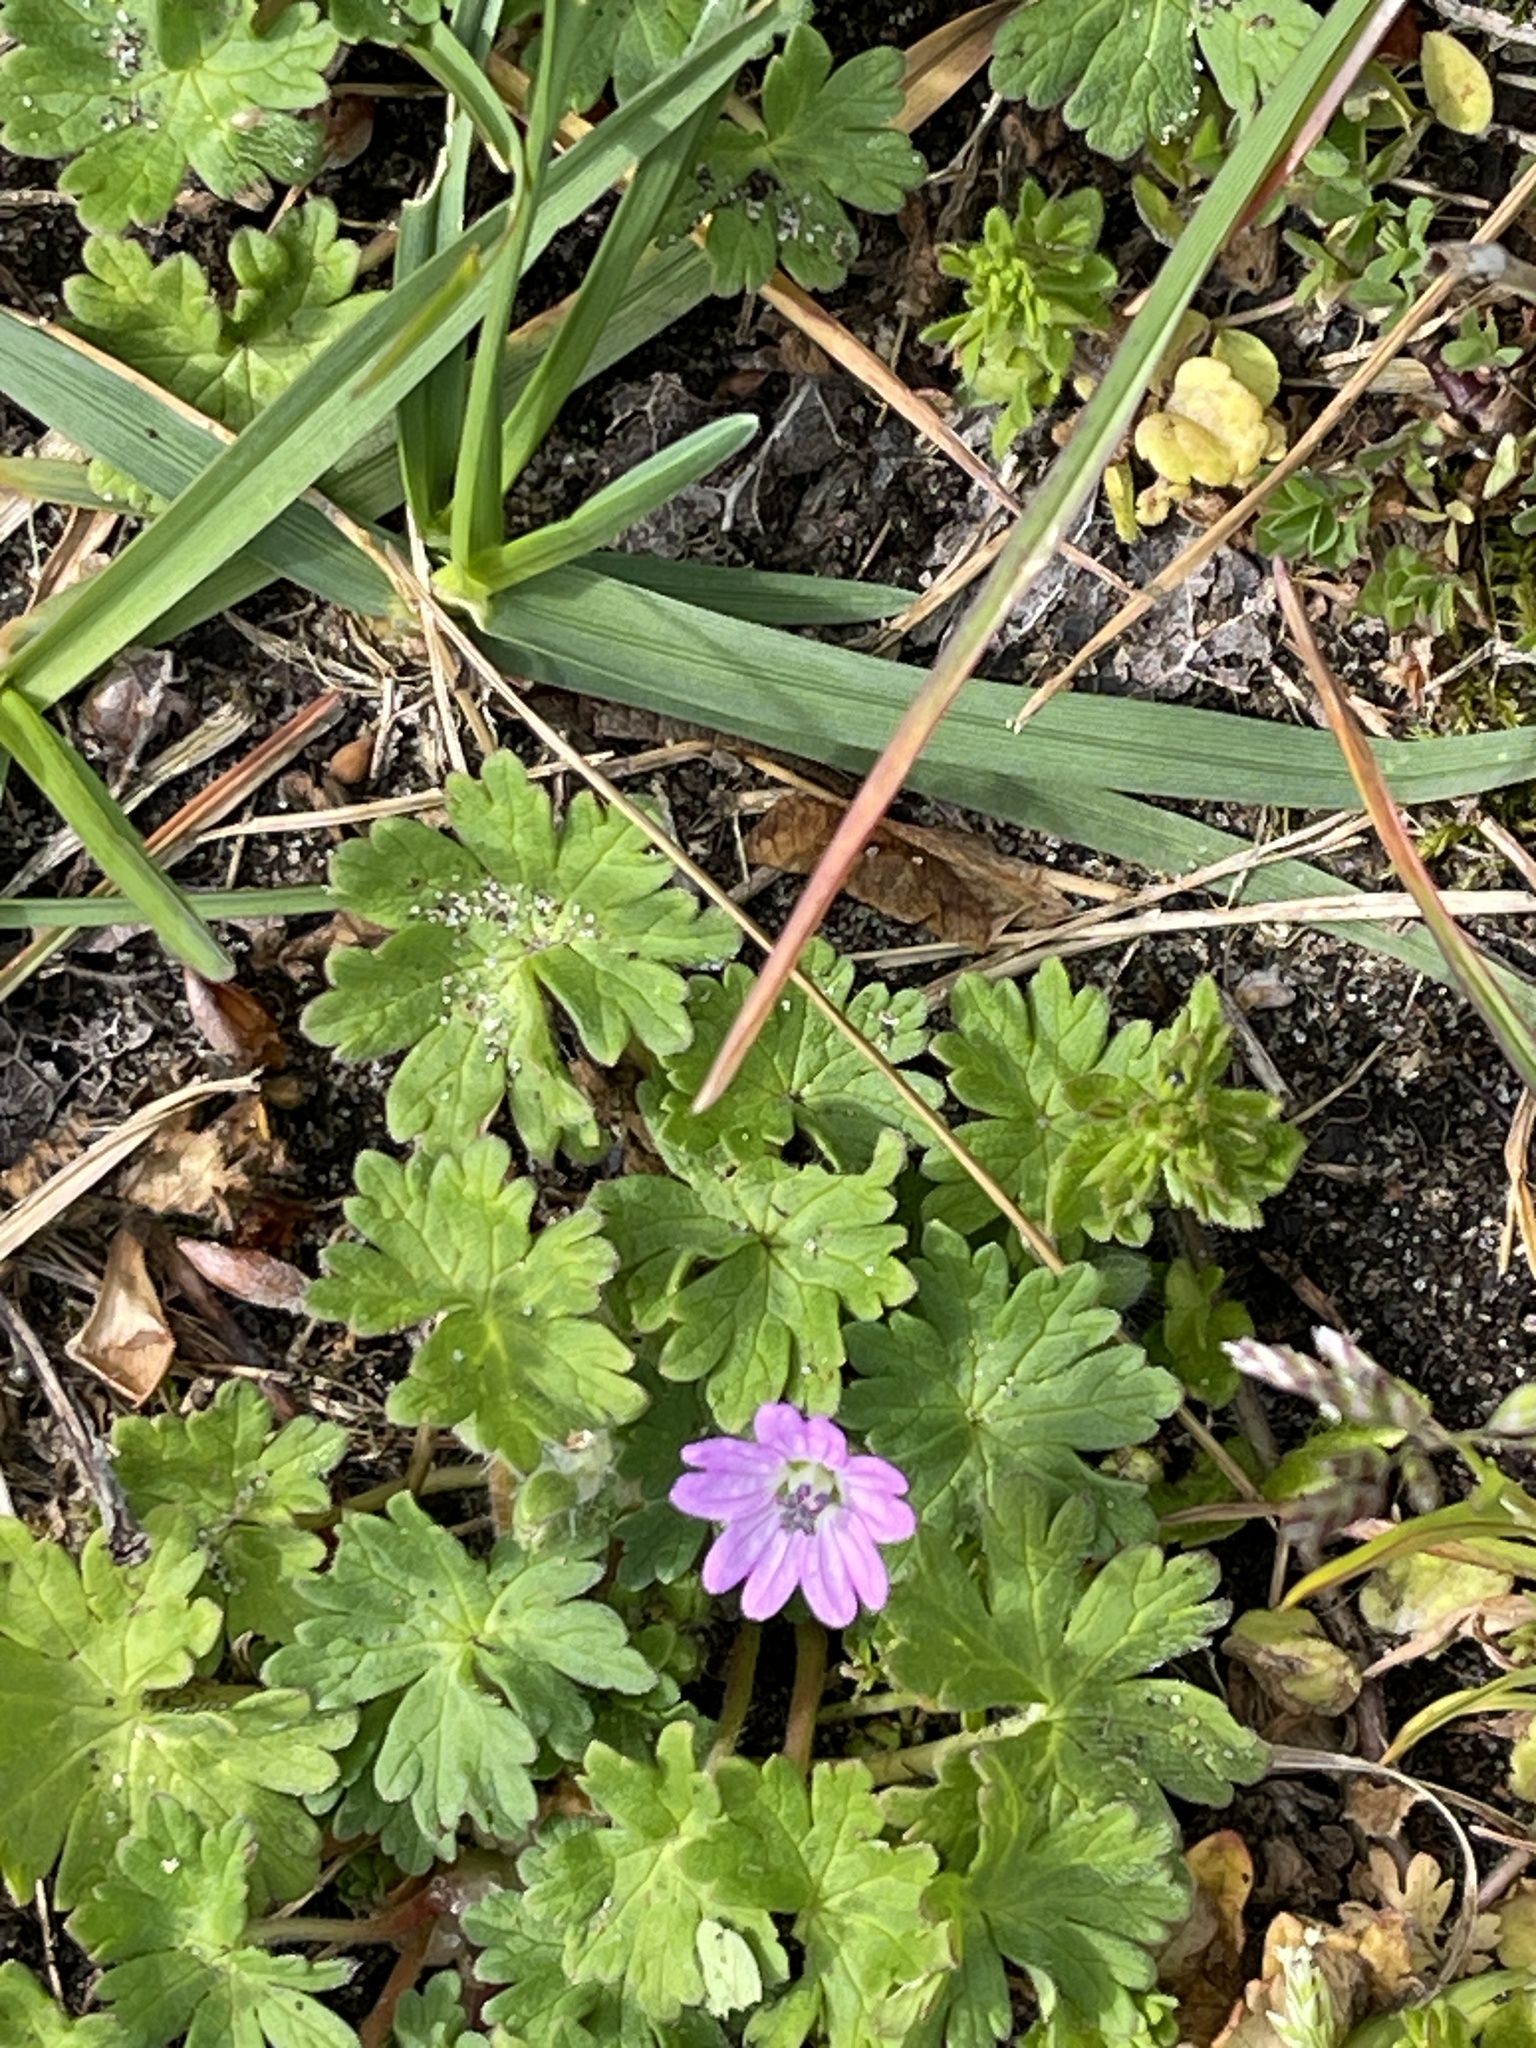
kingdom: Plantae
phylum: Tracheophyta
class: Magnoliopsida
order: Geraniales
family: Geraniaceae
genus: Geranium
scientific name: Geranium molle
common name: Dove's-foot crane's-bill
